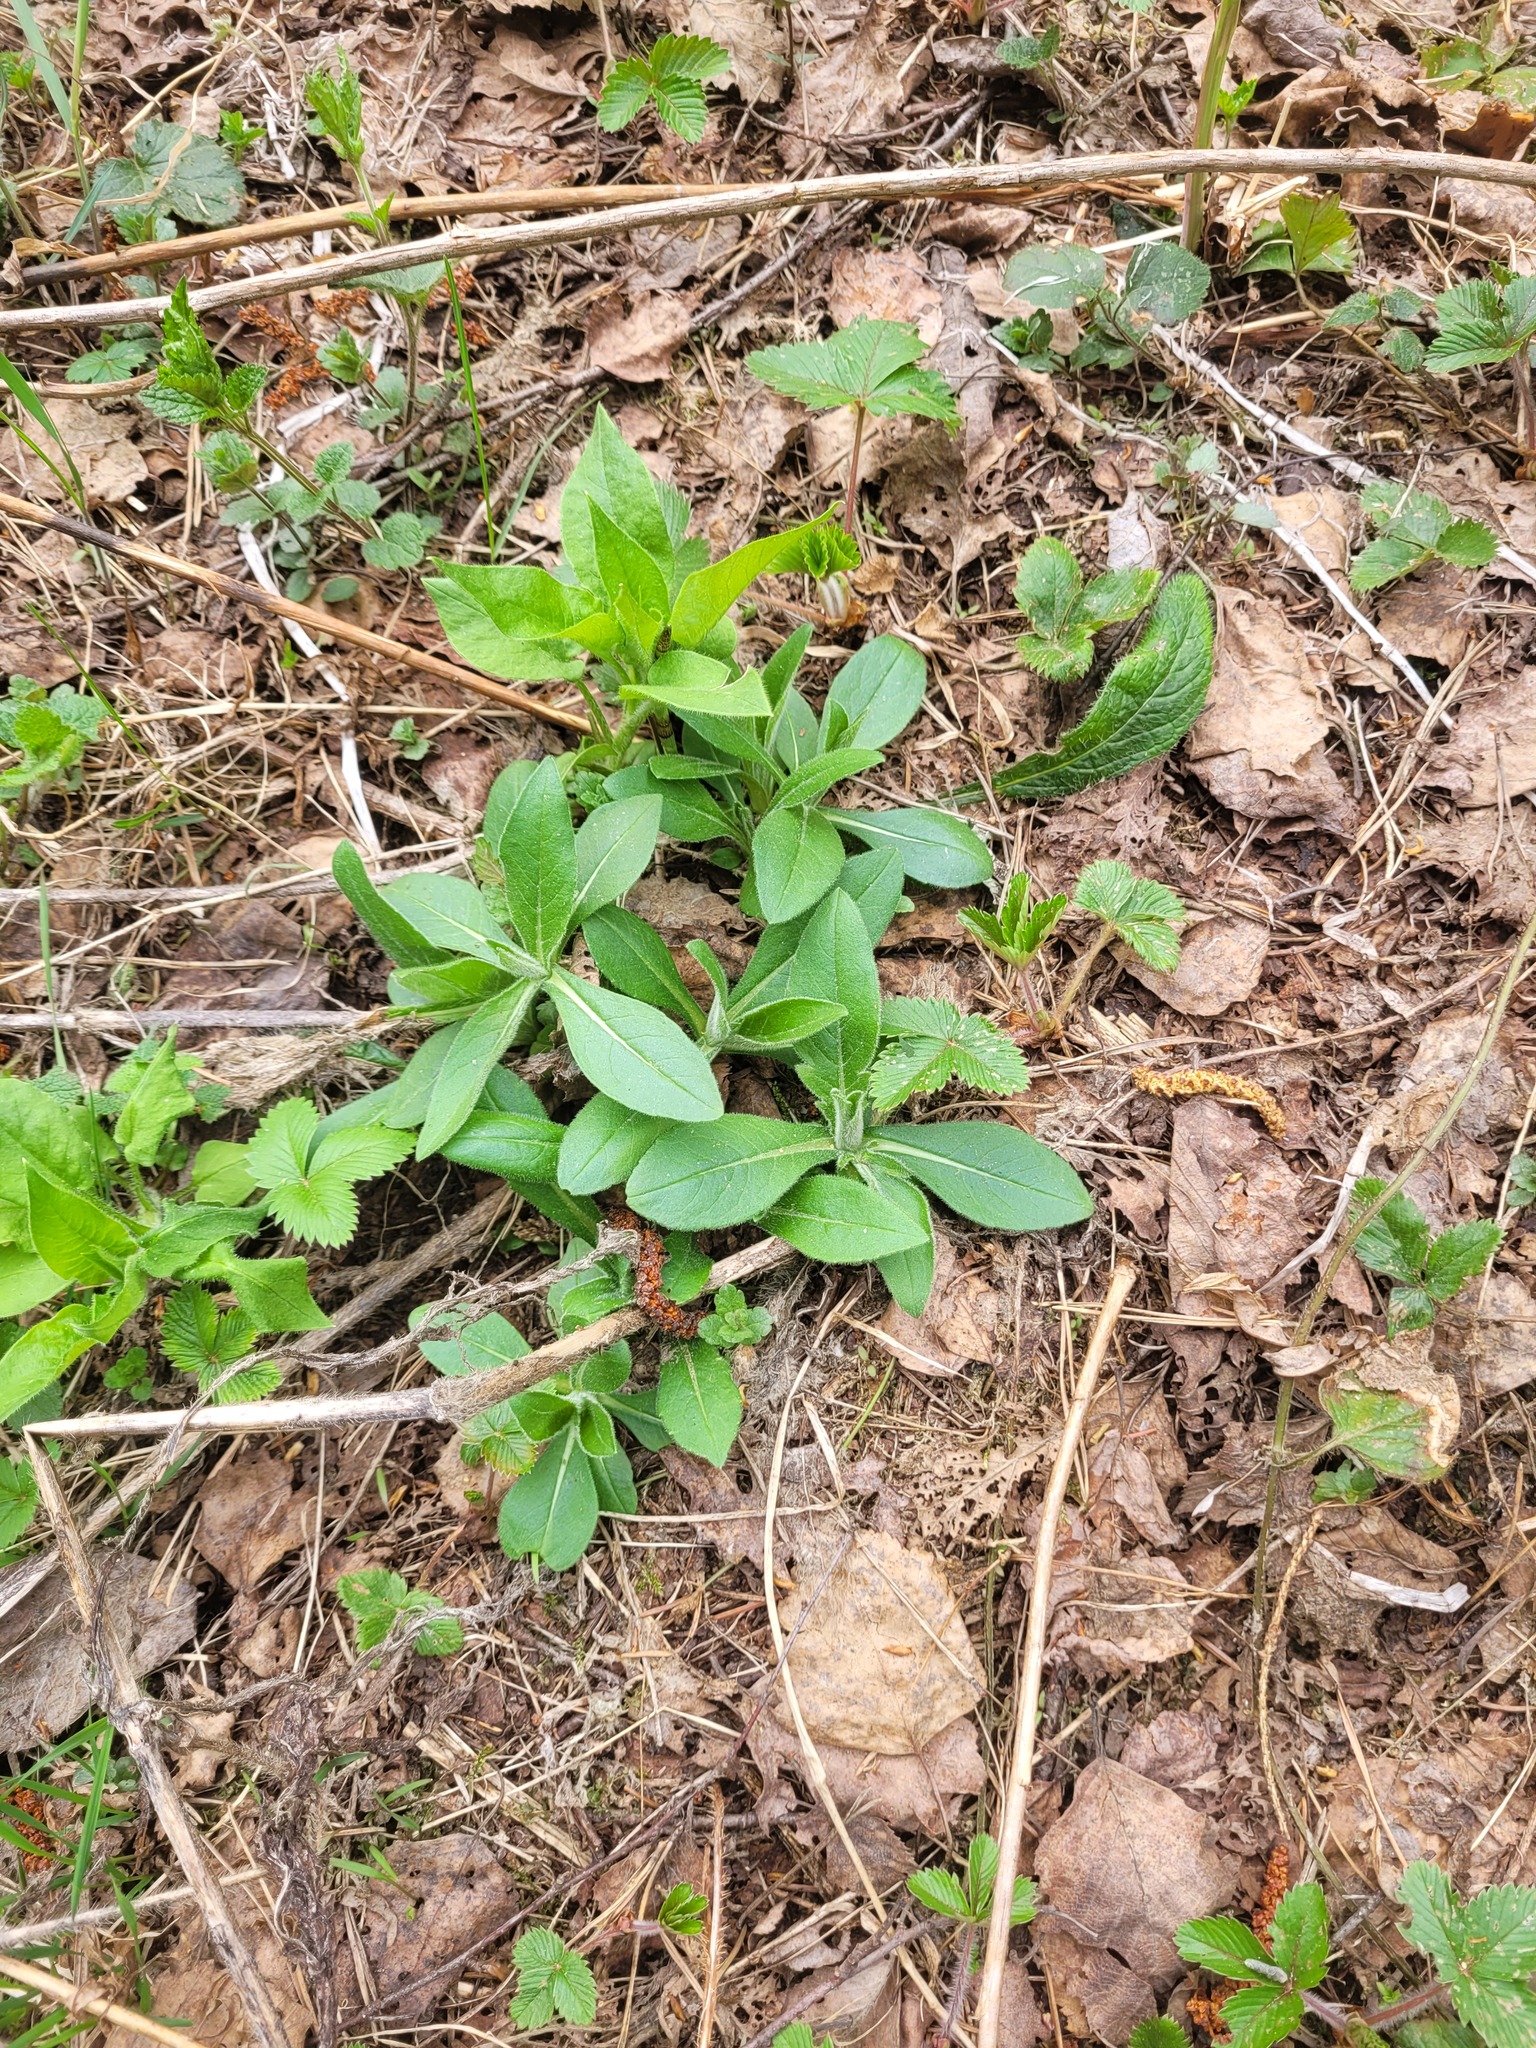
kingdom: Plantae
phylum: Tracheophyta
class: Magnoliopsida
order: Dipsacales
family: Caprifoliaceae
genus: Knautia
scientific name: Knautia arvensis
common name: Field scabiosa
